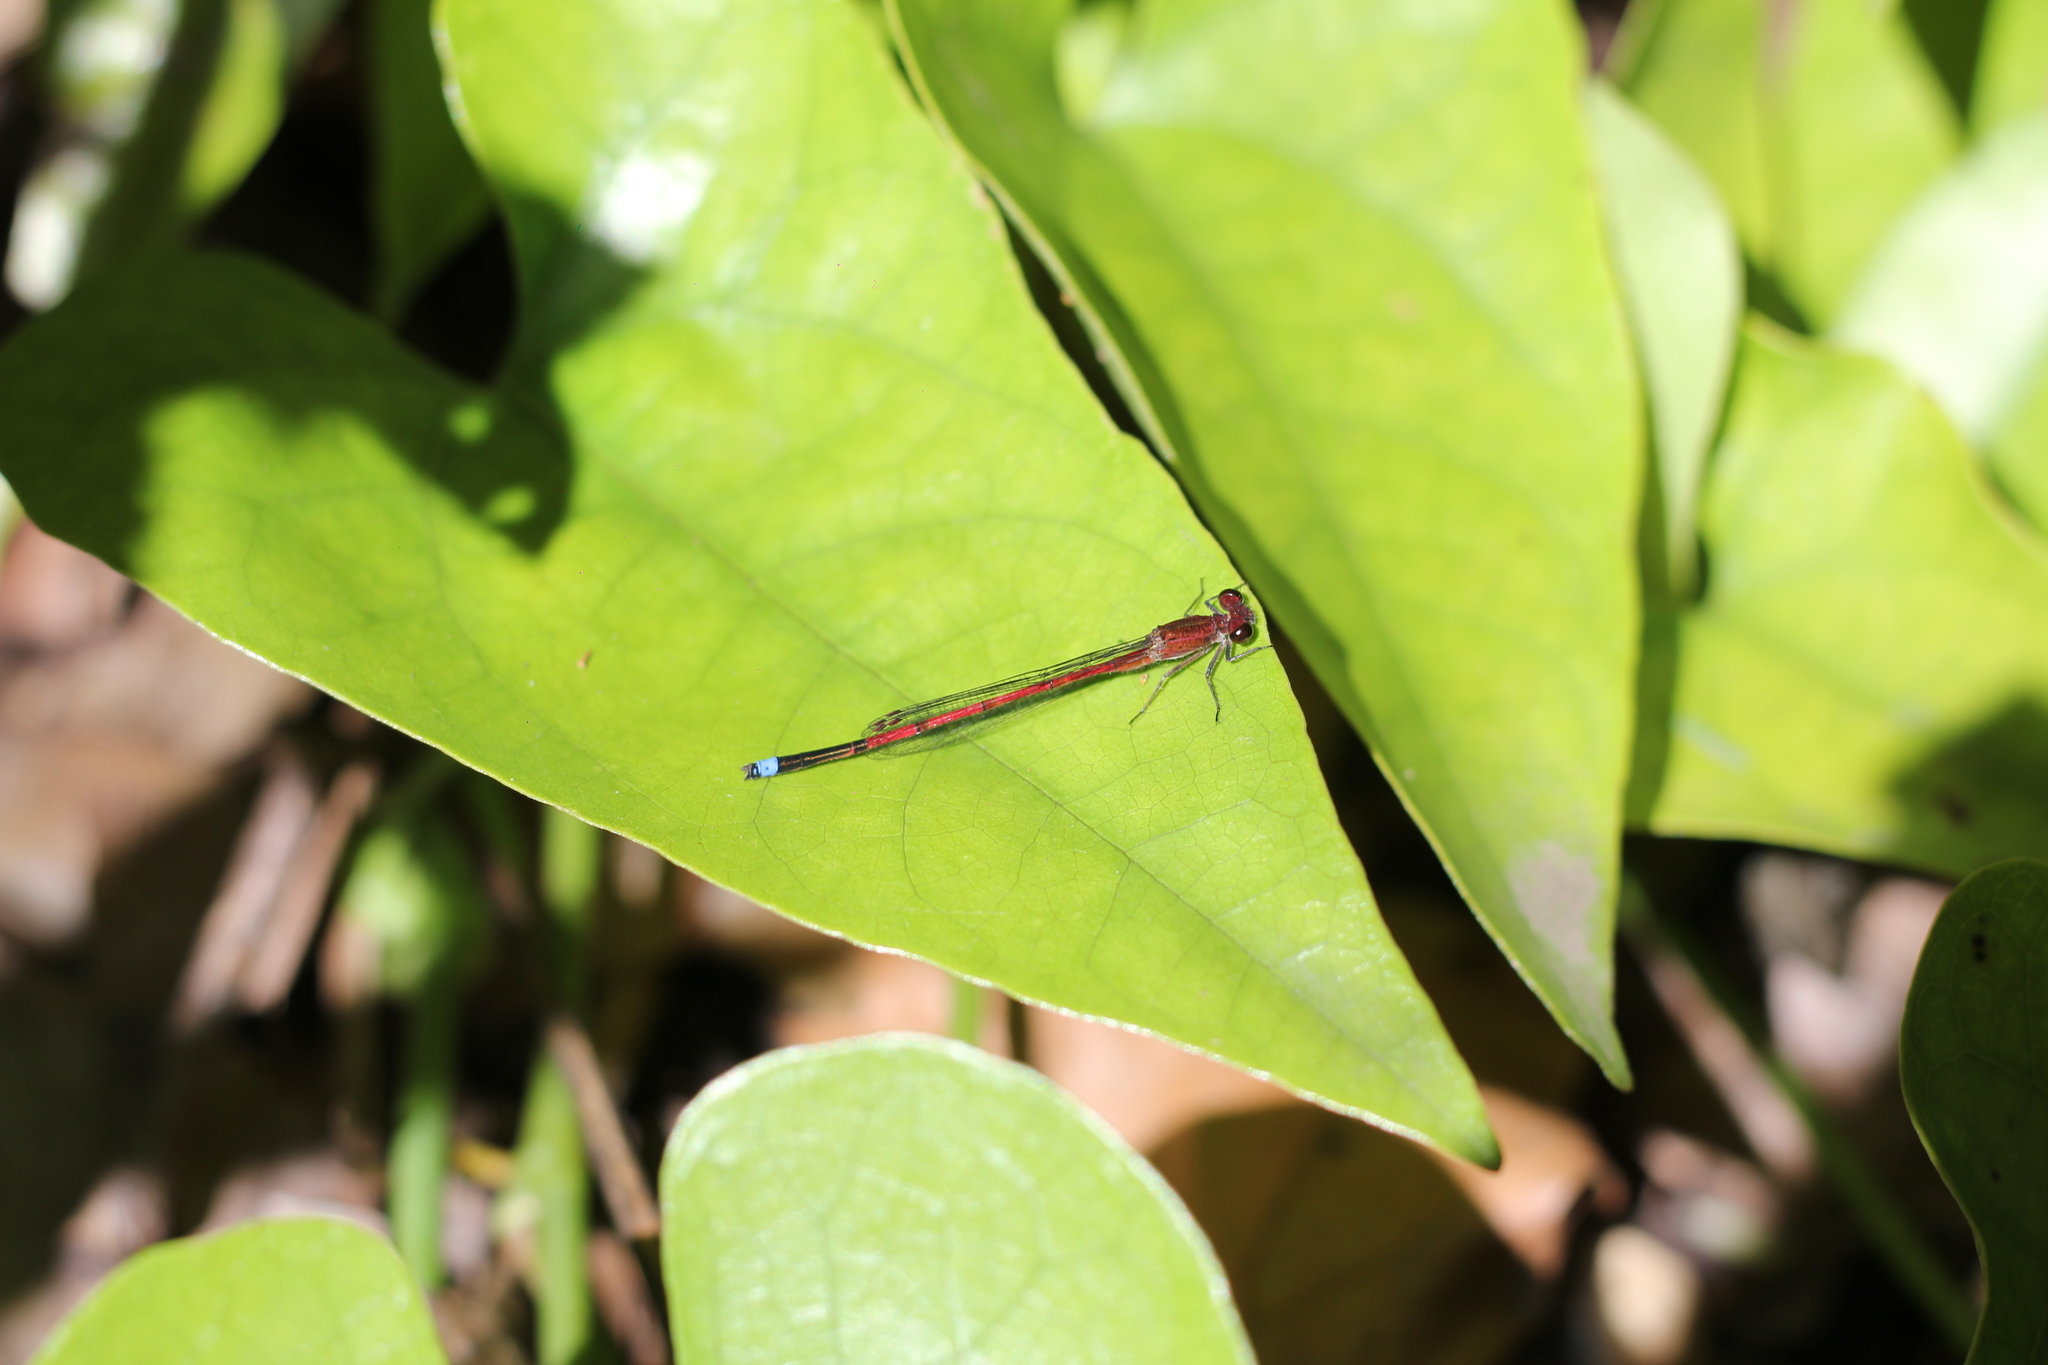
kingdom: Animalia
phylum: Arthropoda
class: Insecta
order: Odonata
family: Coenagrionidae
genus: Oxyagrion
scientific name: Oxyagrion terminale
